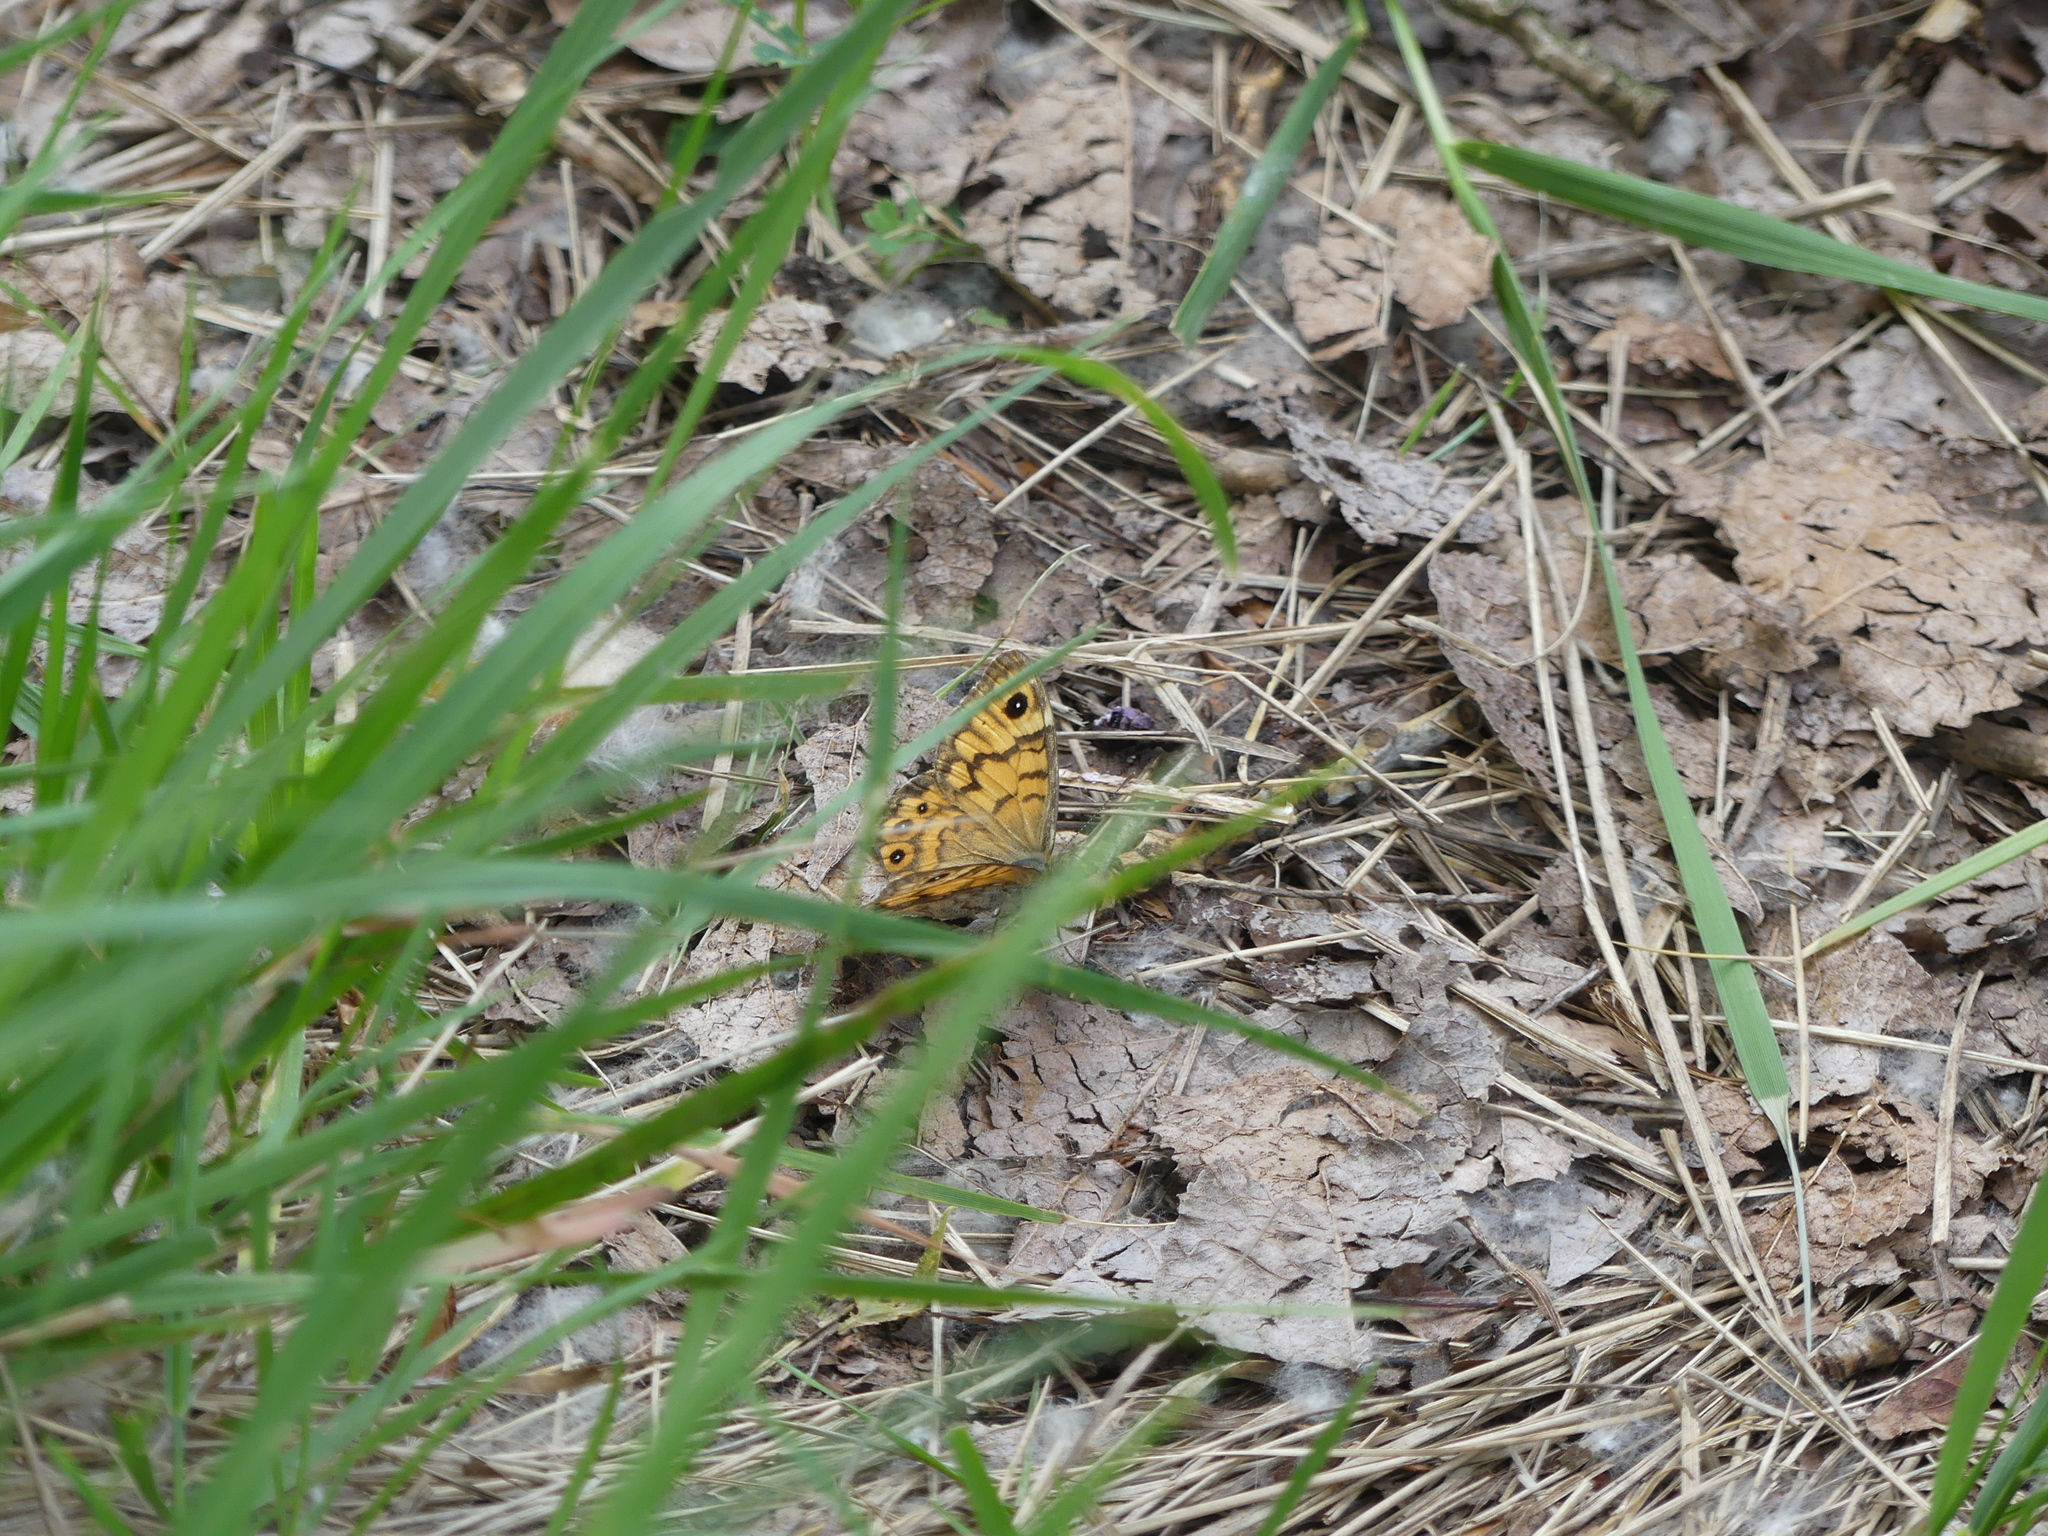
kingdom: Animalia
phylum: Arthropoda
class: Insecta
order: Lepidoptera
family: Nymphalidae
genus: Pararge
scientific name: Pararge Lasiommata megera
